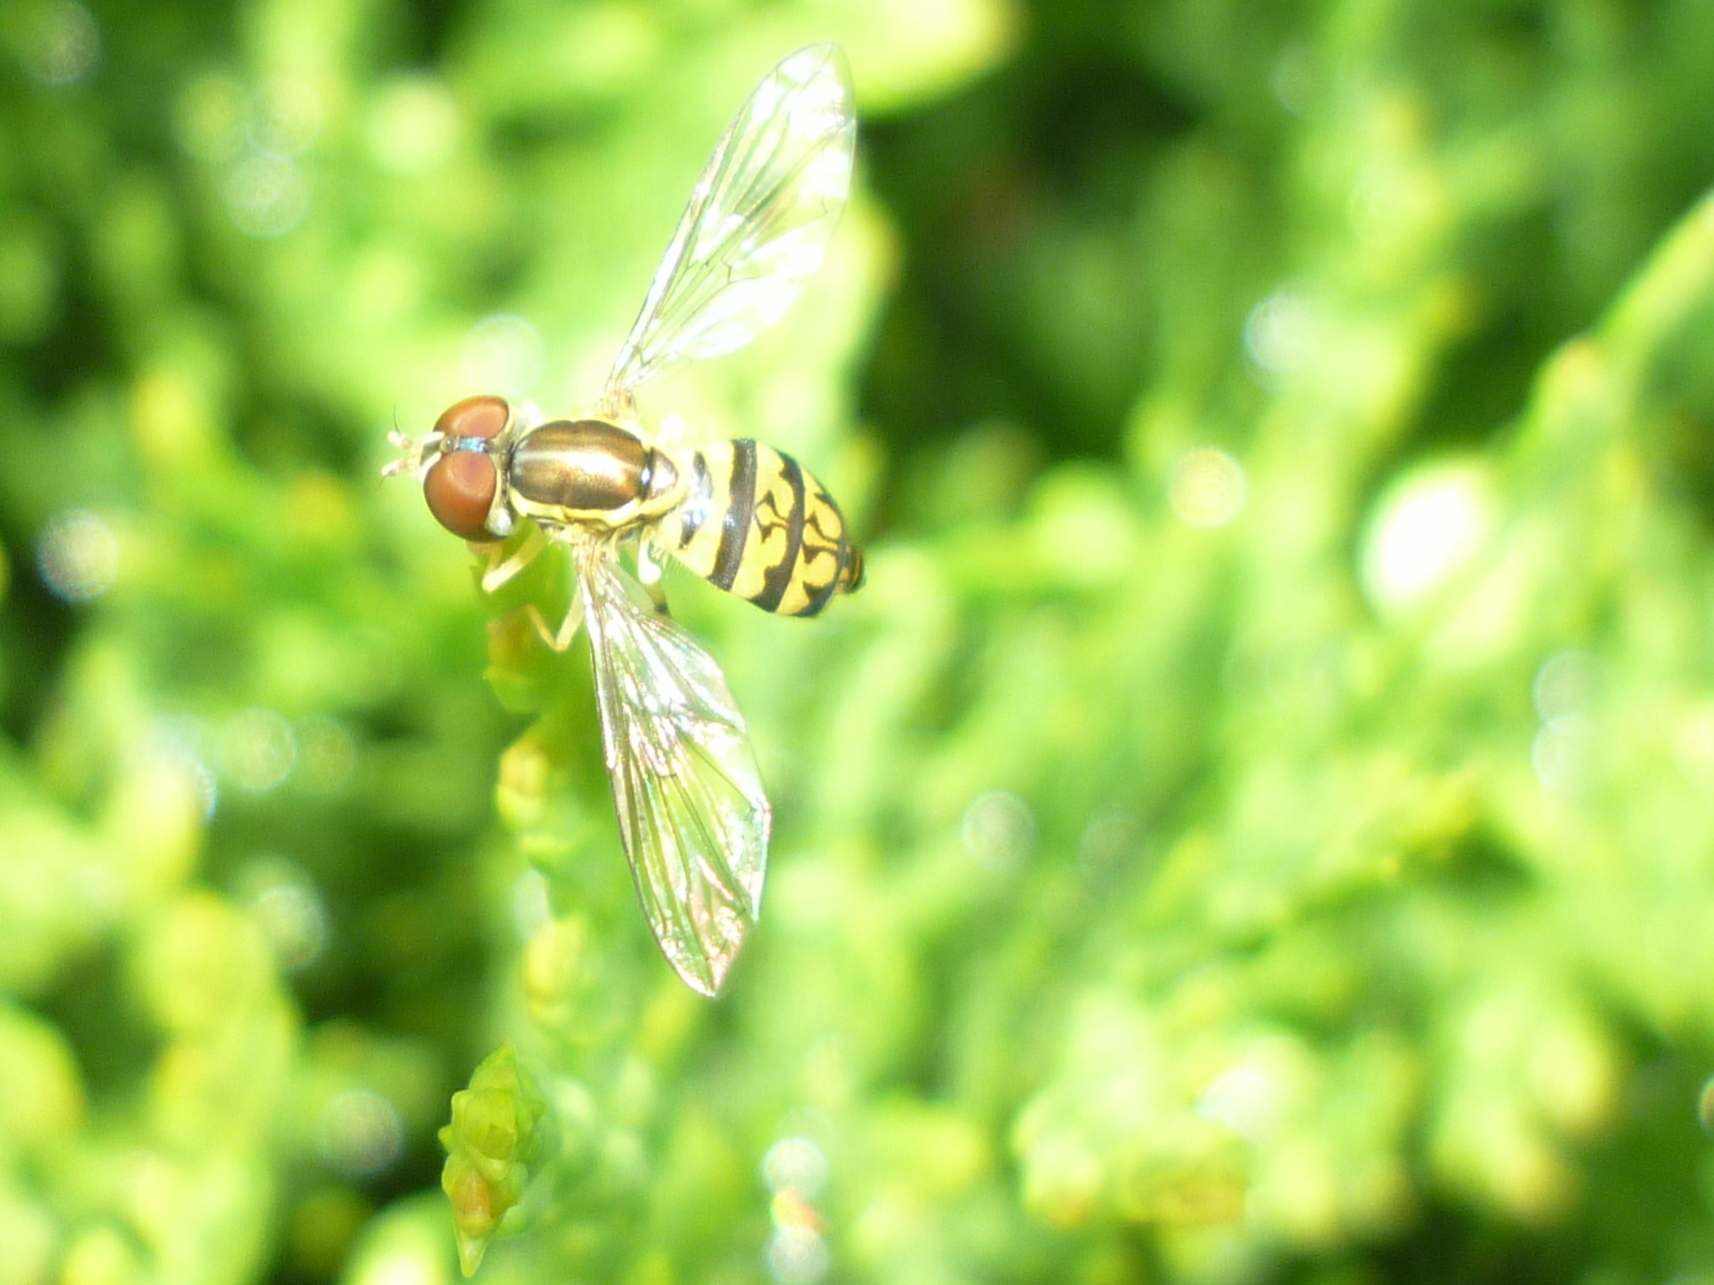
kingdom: Animalia
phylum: Arthropoda
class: Insecta
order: Diptera
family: Syrphidae
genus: Toxomerus
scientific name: Toxomerus geminatus
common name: Eastern calligrapher
